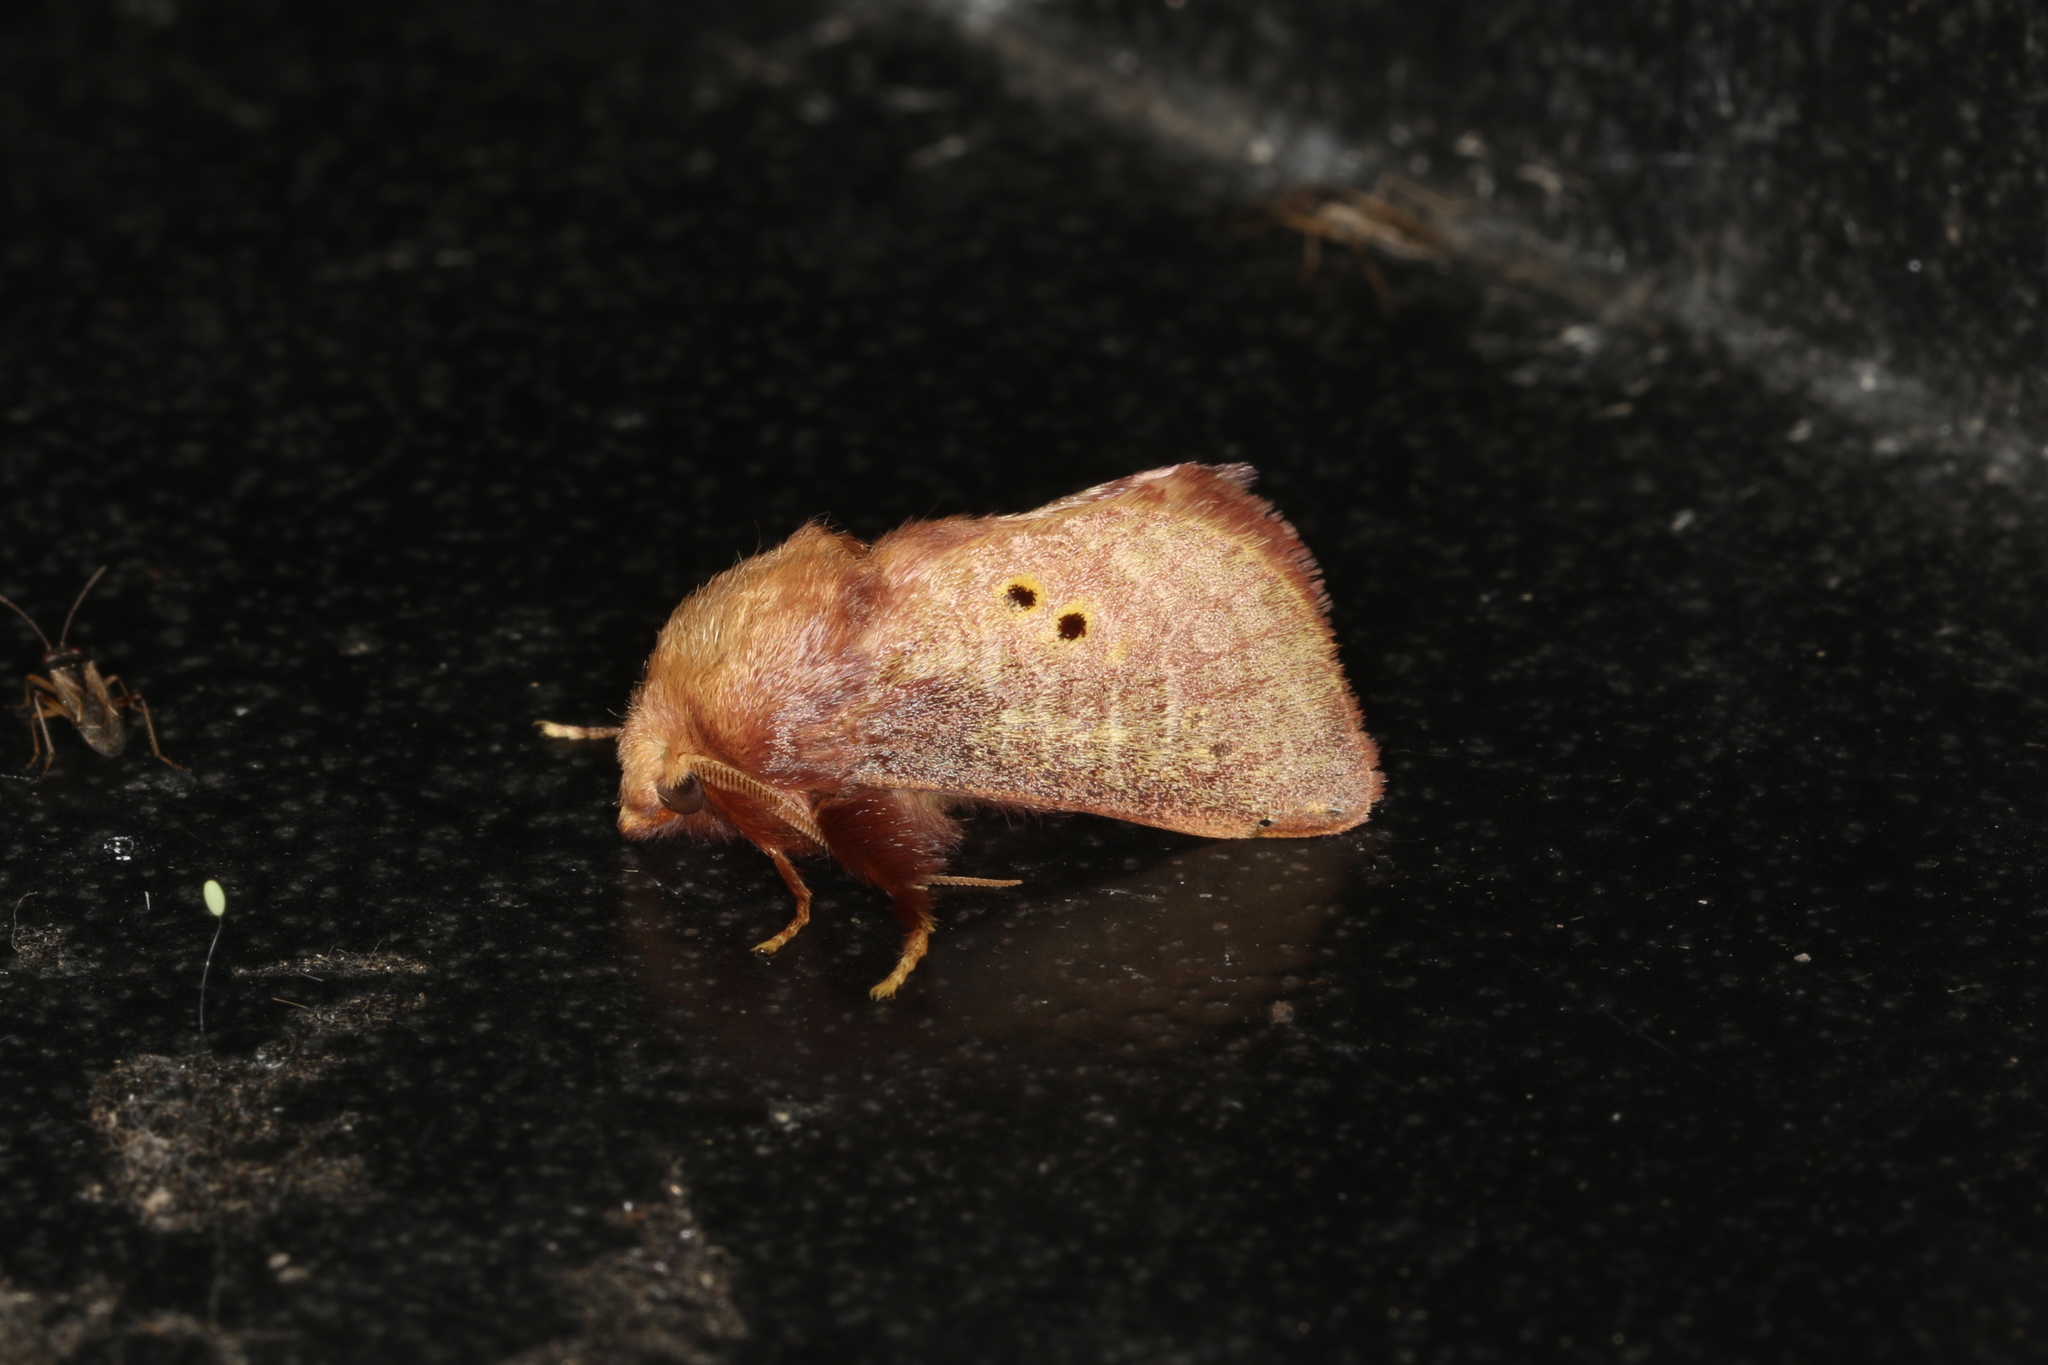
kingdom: Animalia
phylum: Arthropoda
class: Insecta
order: Lepidoptera
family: Limacodidae
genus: Doratifera
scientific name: Doratifera quadriguttata
